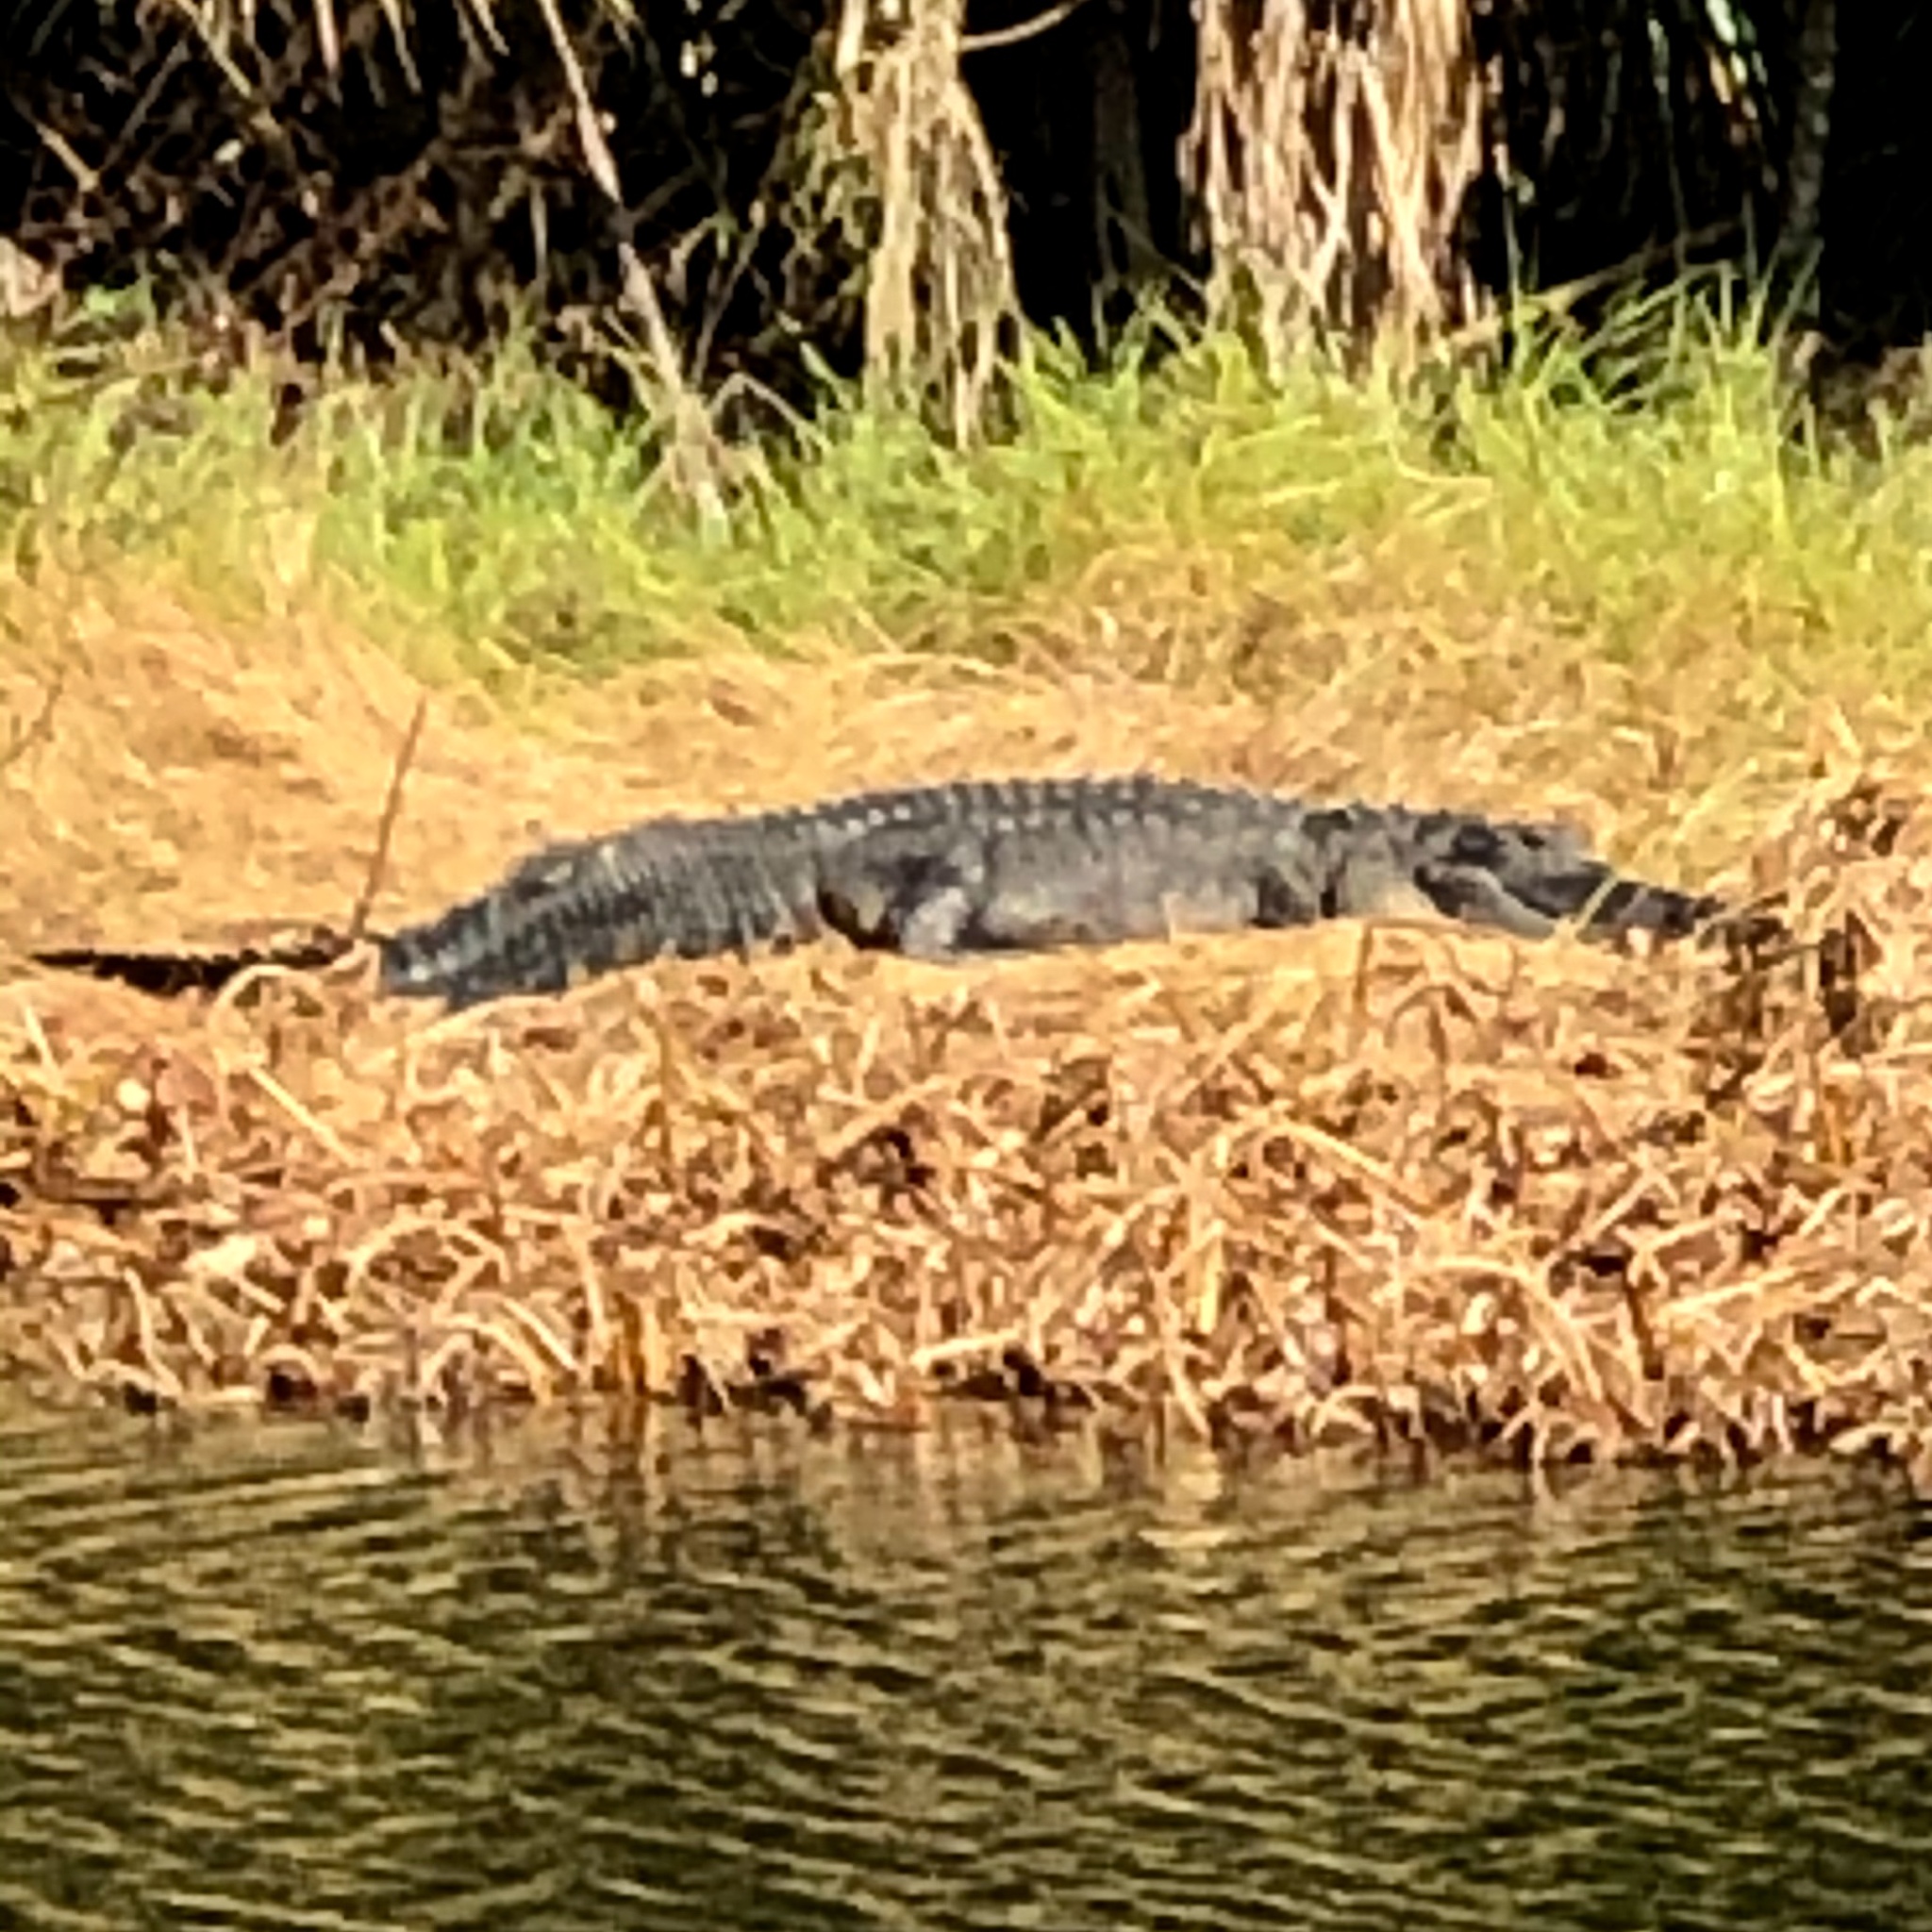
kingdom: Animalia
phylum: Chordata
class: Crocodylia
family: Alligatoridae
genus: Alligator
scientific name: Alligator mississippiensis
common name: American alligator
